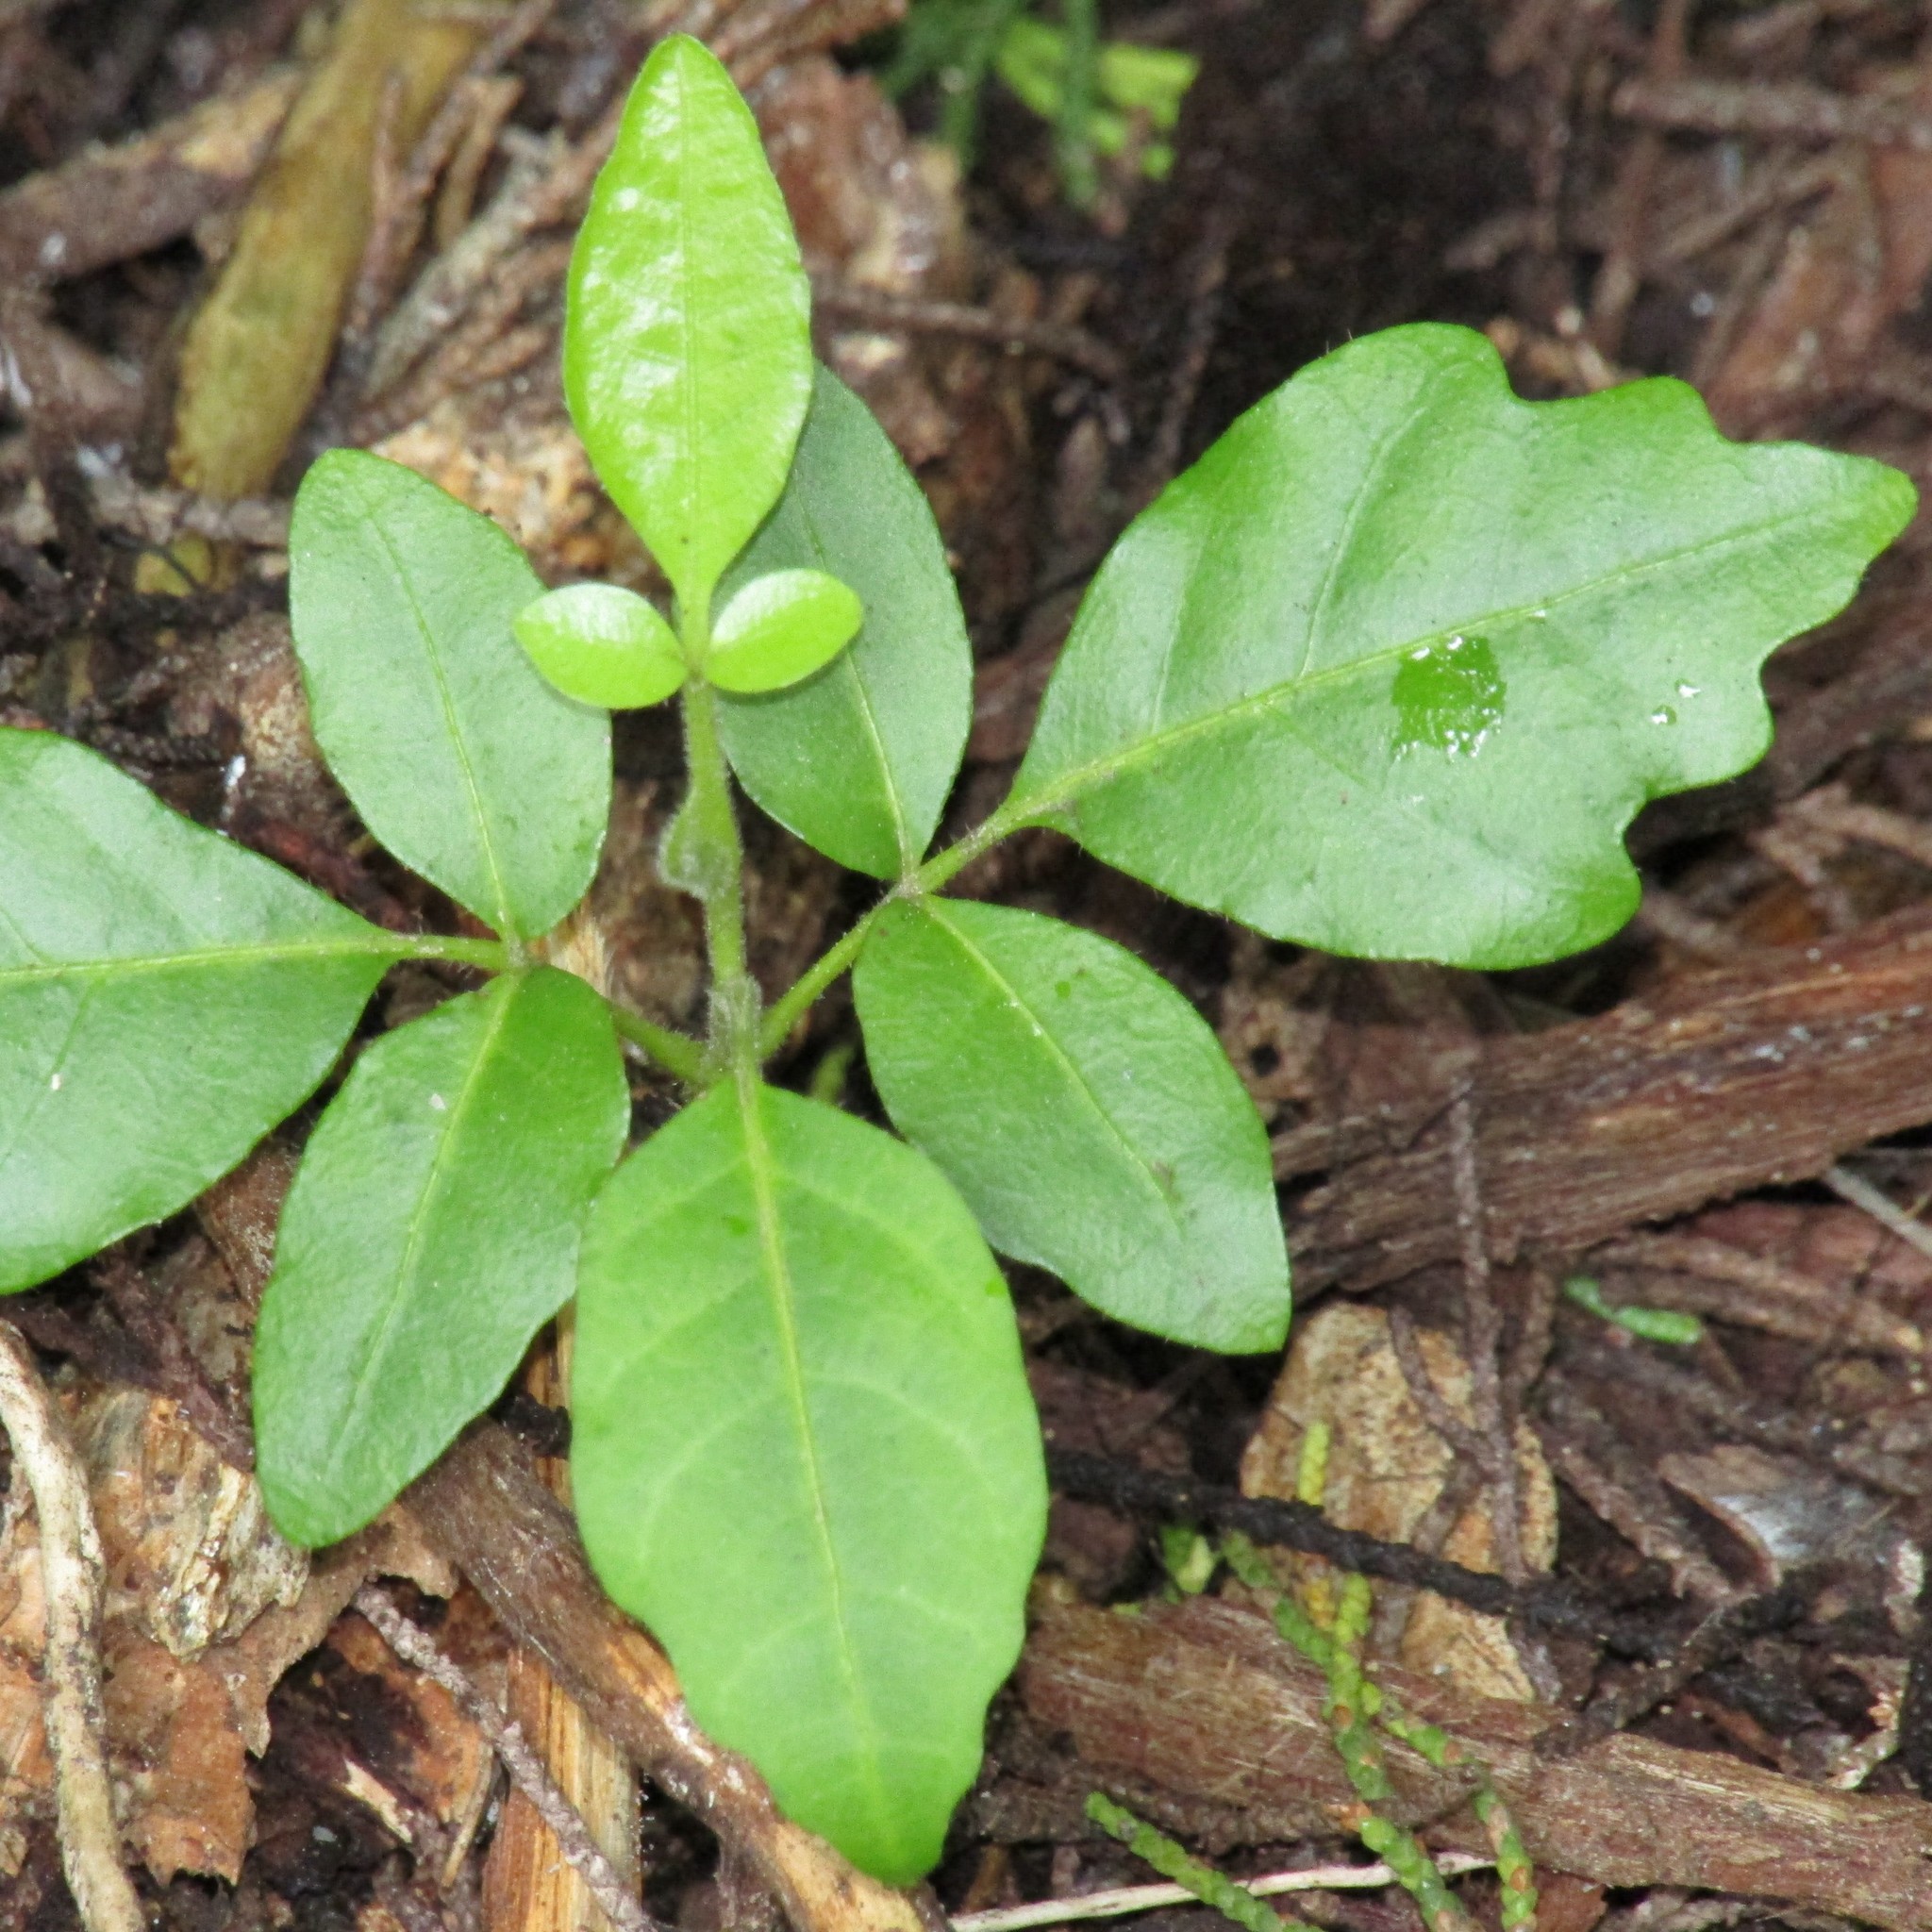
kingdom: Plantae
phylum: Tracheophyta
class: Magnoliopsida
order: Sapindales
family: Meliaceae
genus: Didymocheton
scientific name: Didymocheton spectabilis
